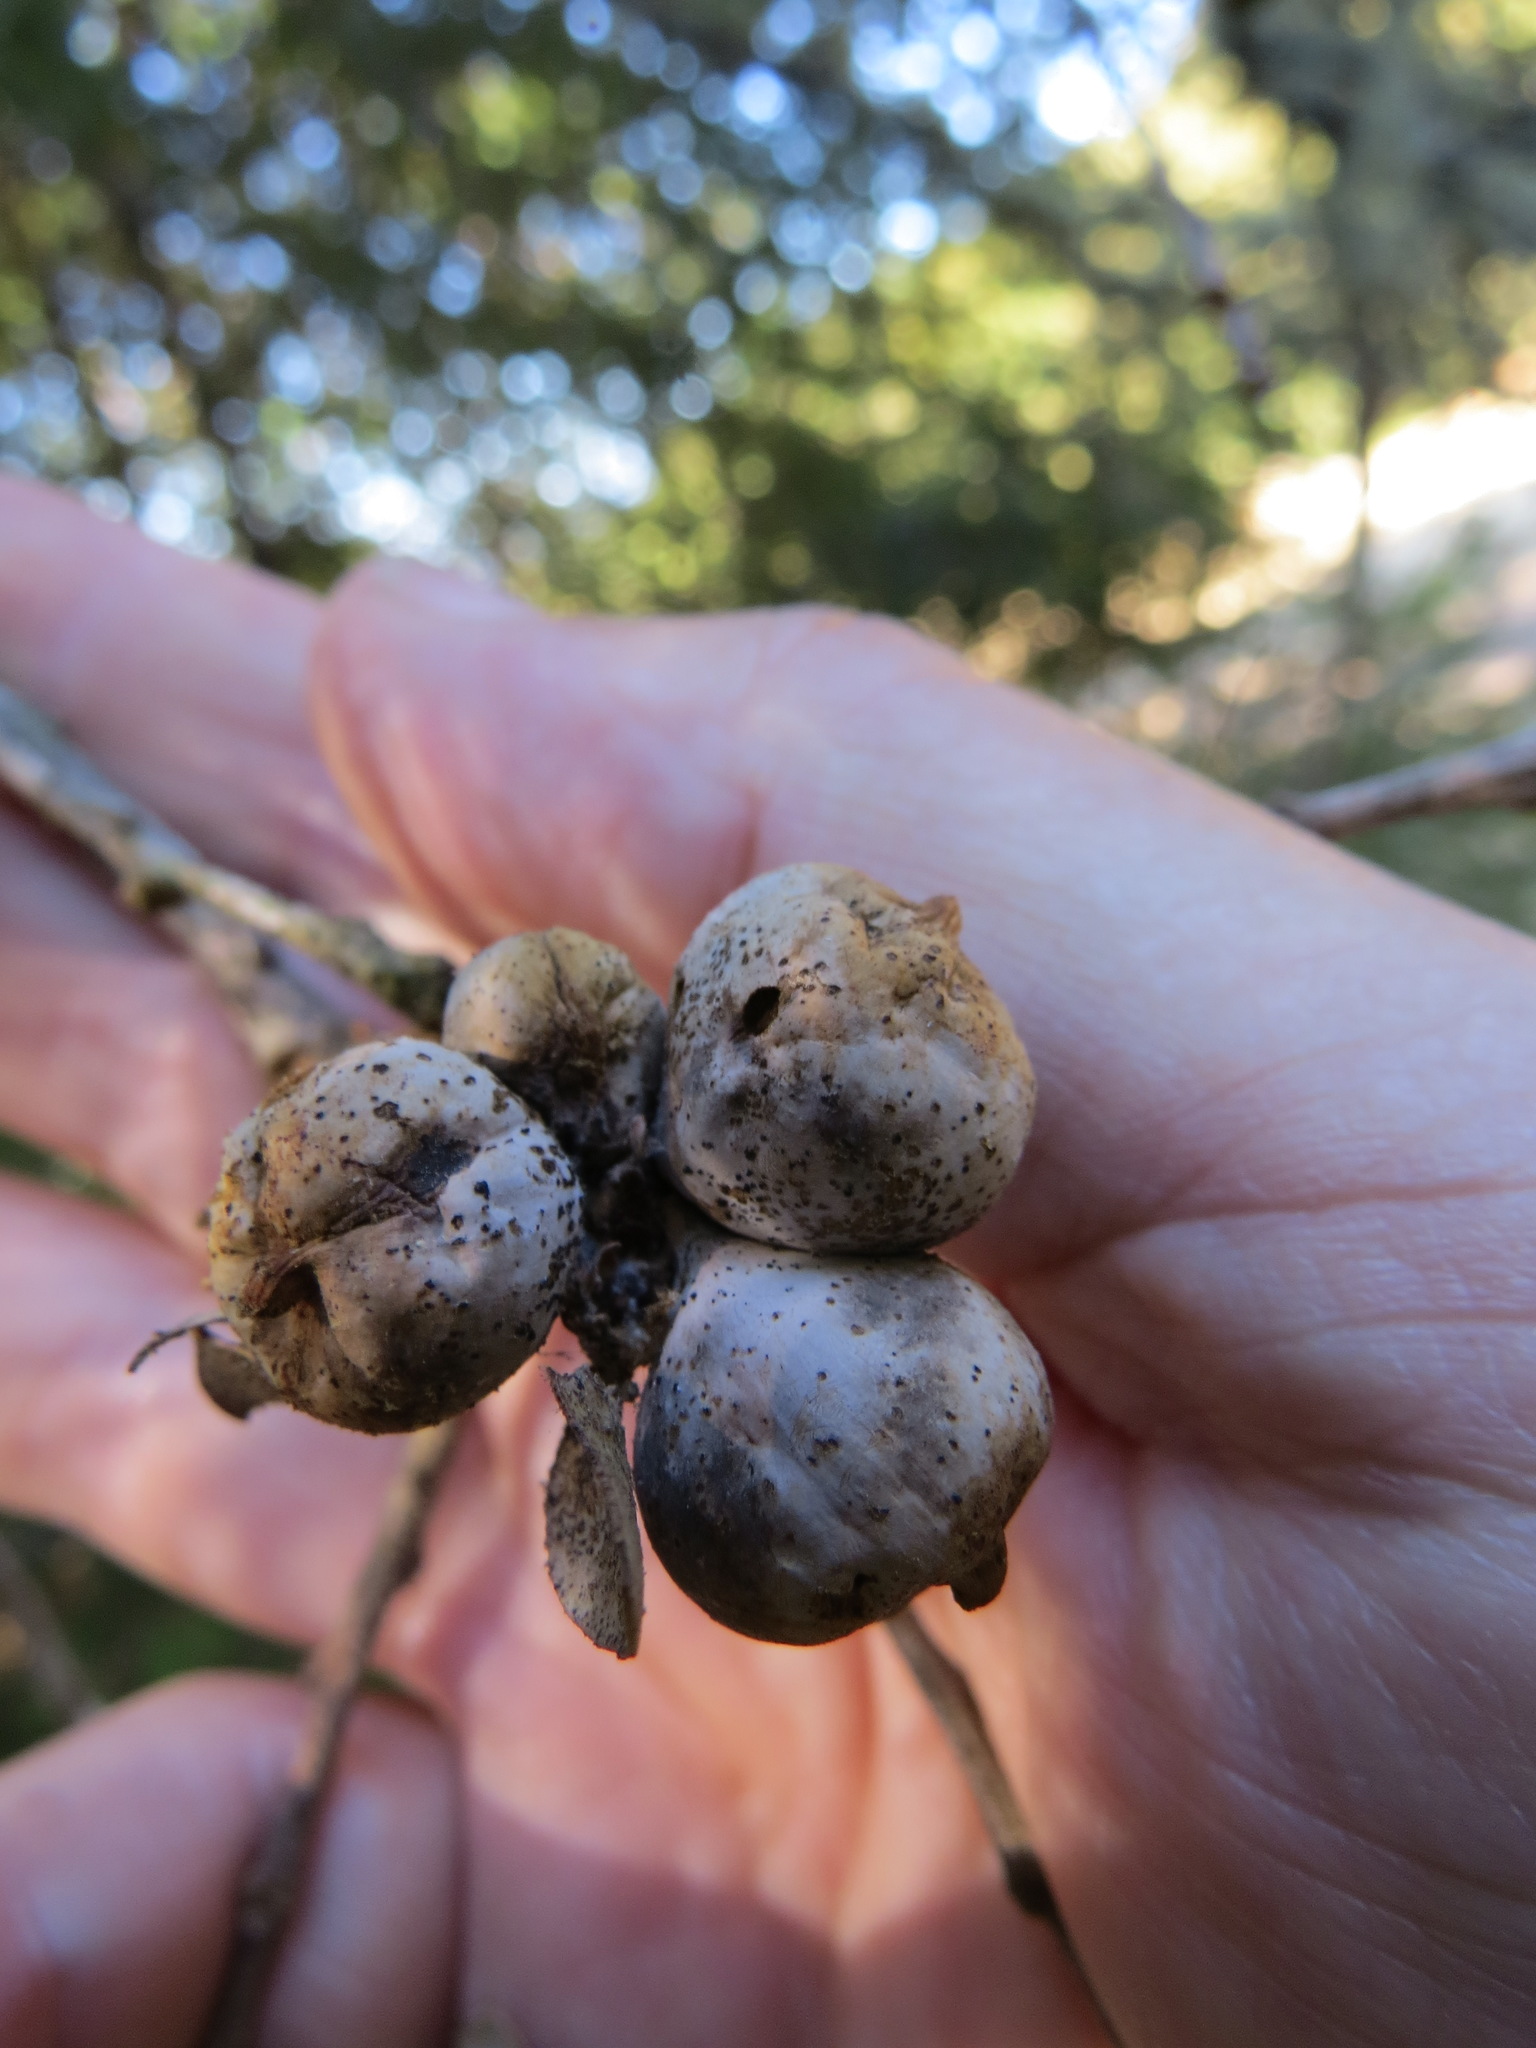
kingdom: Animalia
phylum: Arthropoda
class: Insecta
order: Hymenoptera
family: Cynipidae
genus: Heteroecus
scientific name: Heteroecus
